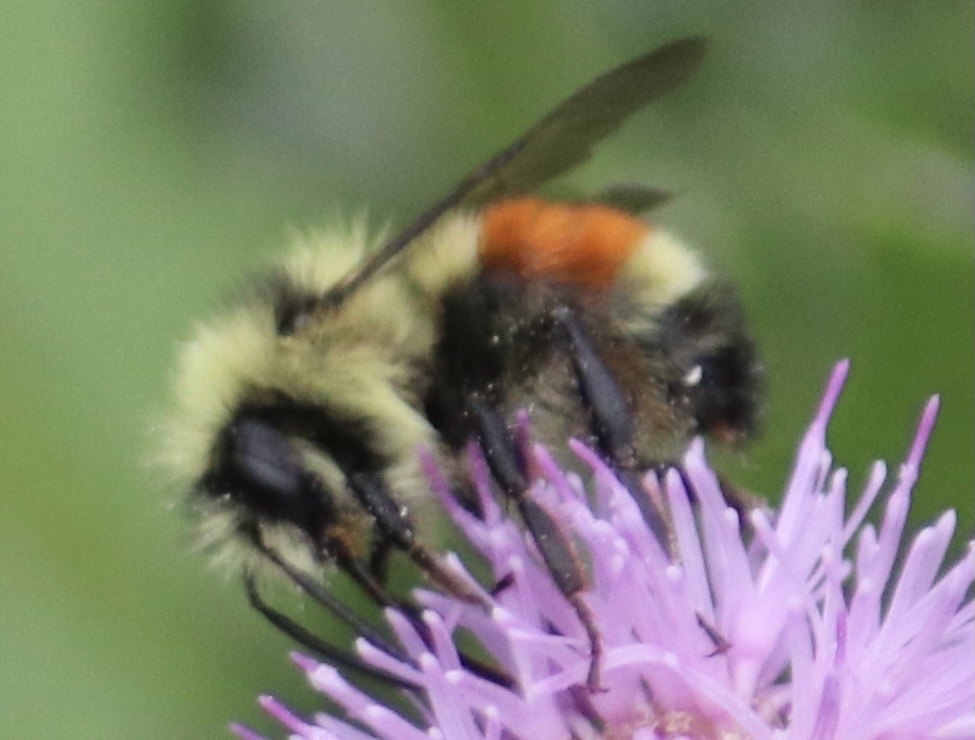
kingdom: Animalia
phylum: Arthropoda
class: Insecta
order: Hymenoptera
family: Apidae
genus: Bombus
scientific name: Bombus sylvicola
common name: Forest bumble bee
